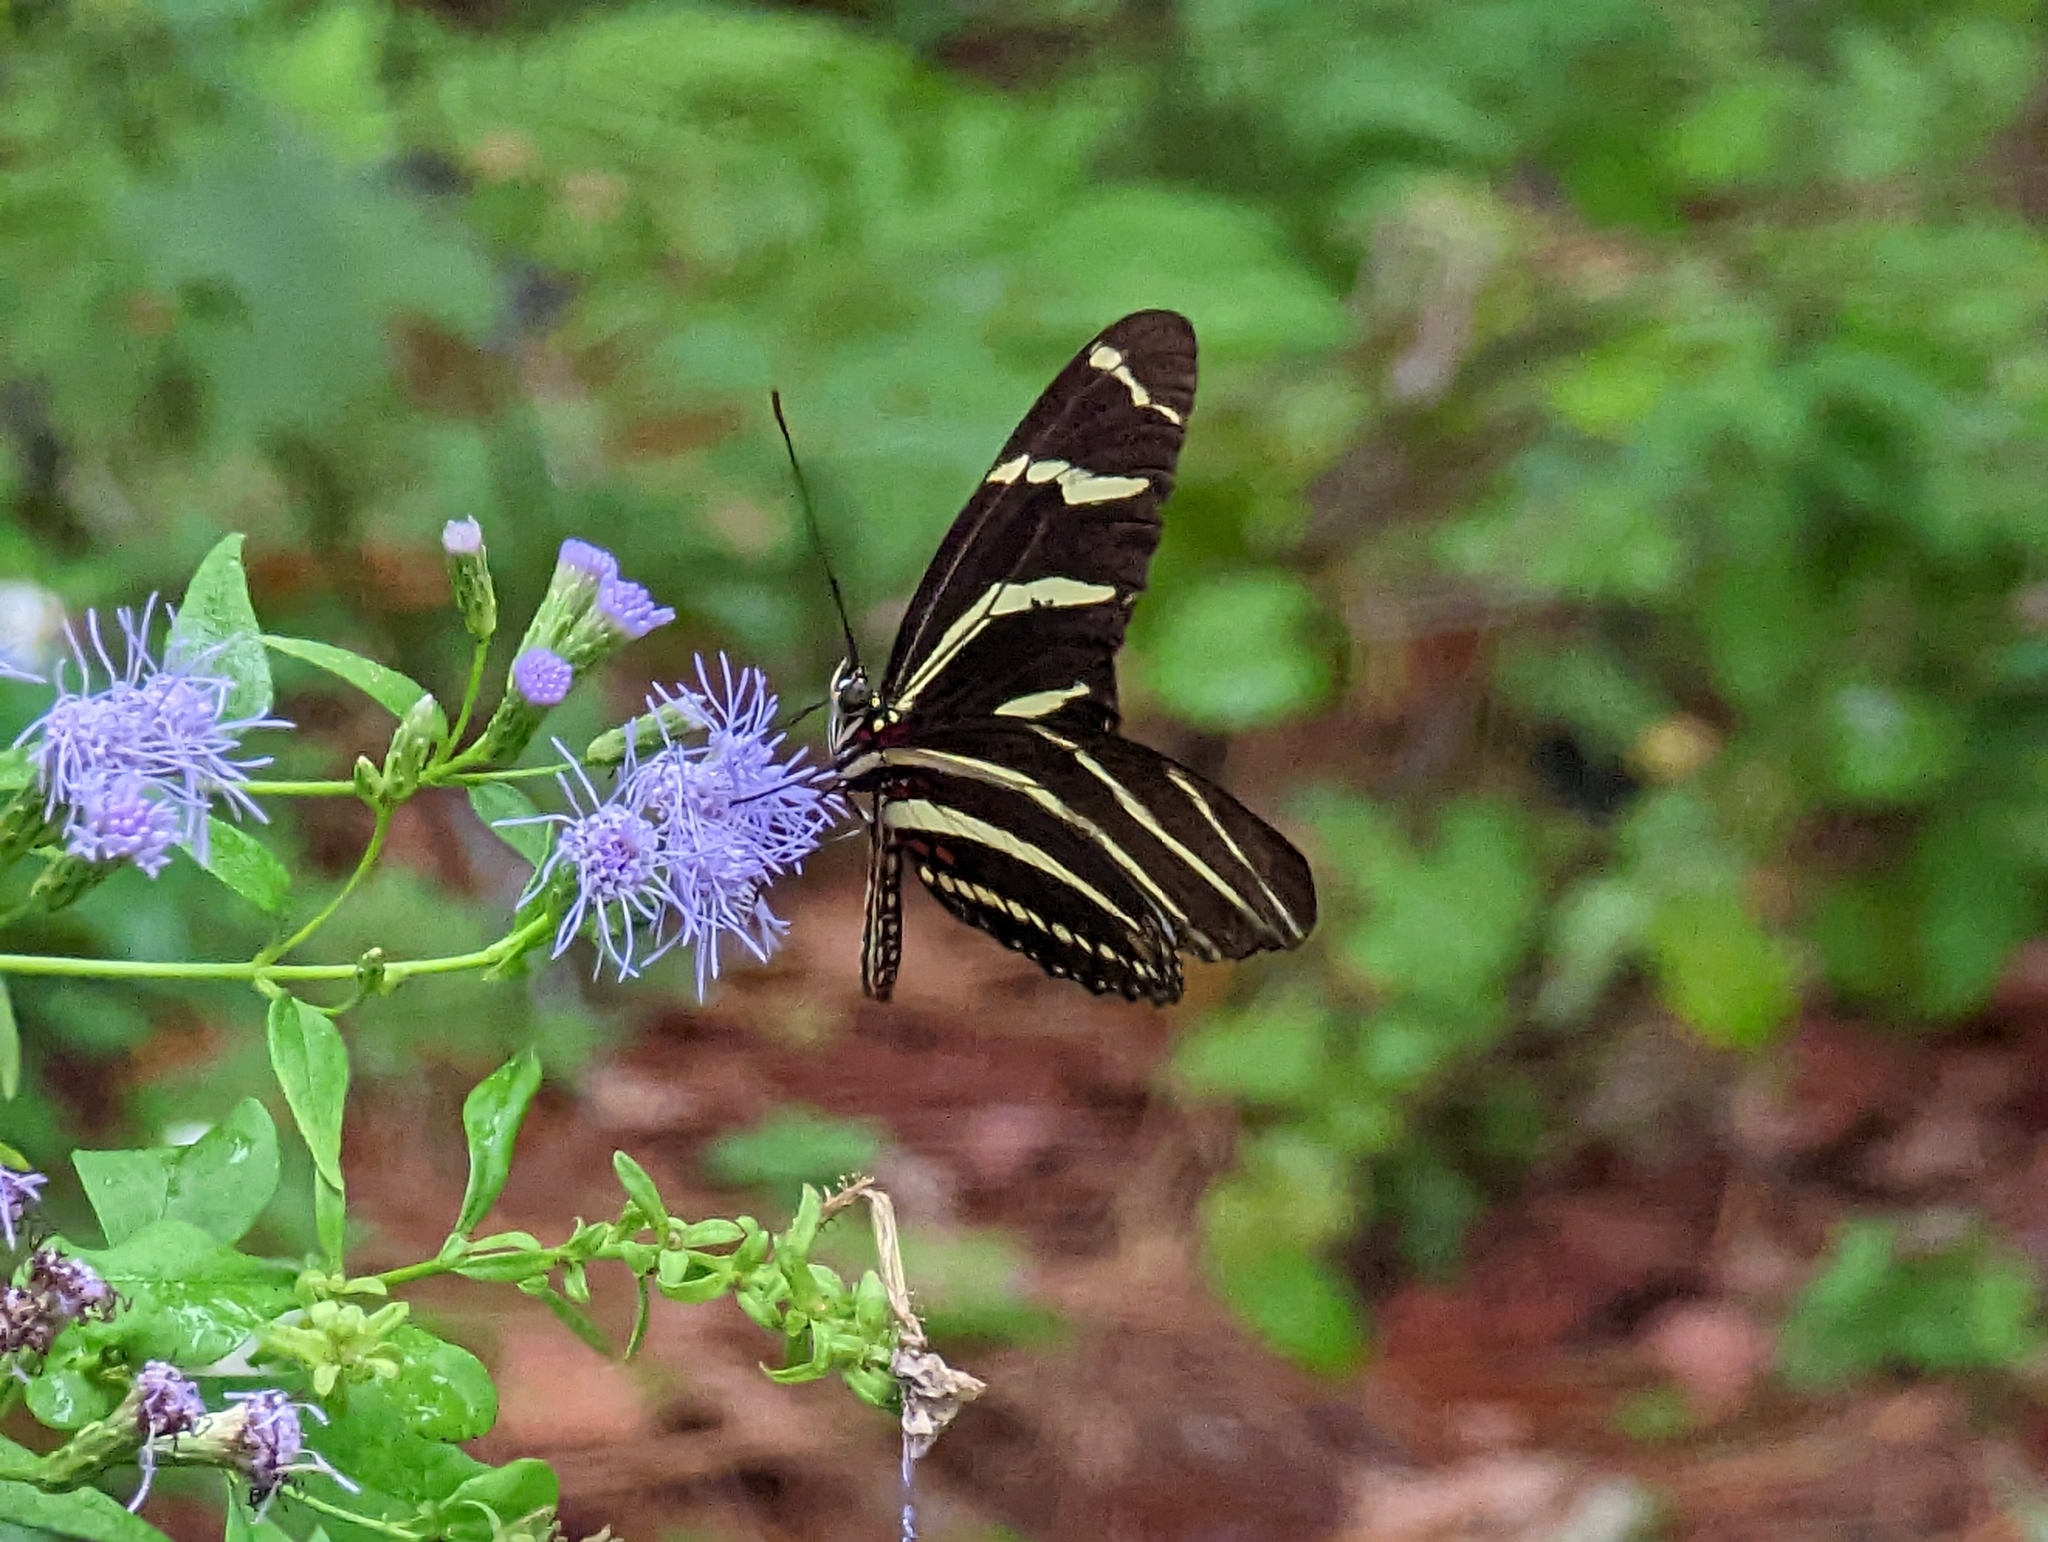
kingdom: Animalia
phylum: Arthropoda
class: Insecta
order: Lepidoptera
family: Nymphalidae
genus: Heliconius
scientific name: Heliconius charithonia
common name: Zebra long wing
